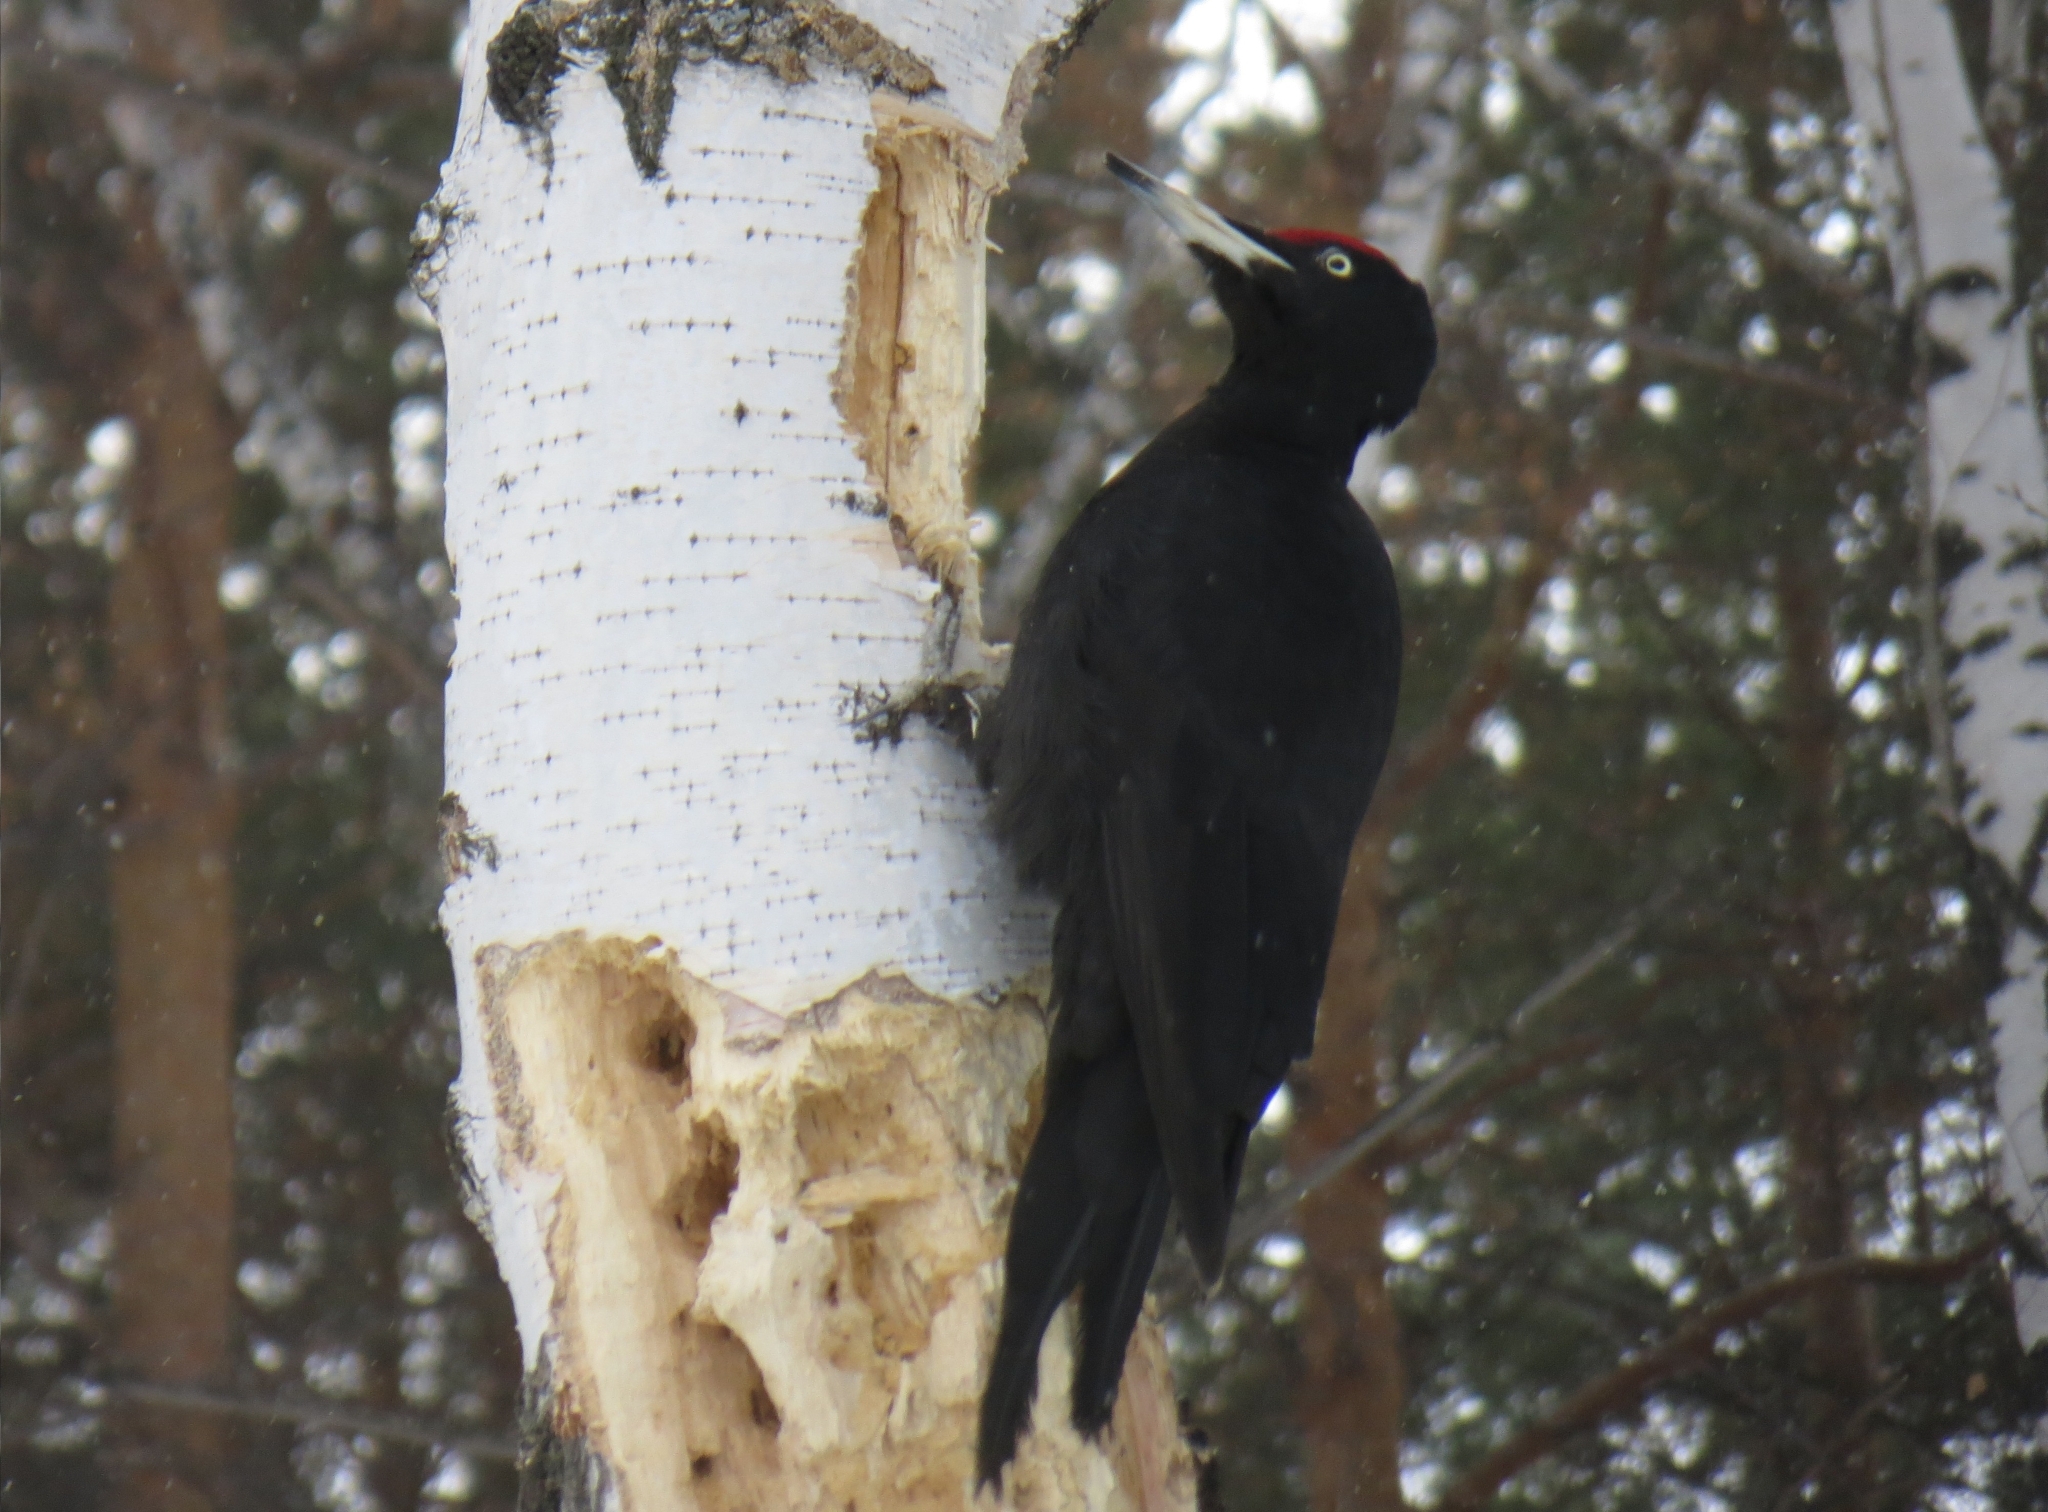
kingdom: Animalia
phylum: Chordata
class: Aves
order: Piciformes
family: Picidae
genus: Dryocopus
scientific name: Dryocopus martius
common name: Black woodpecker
